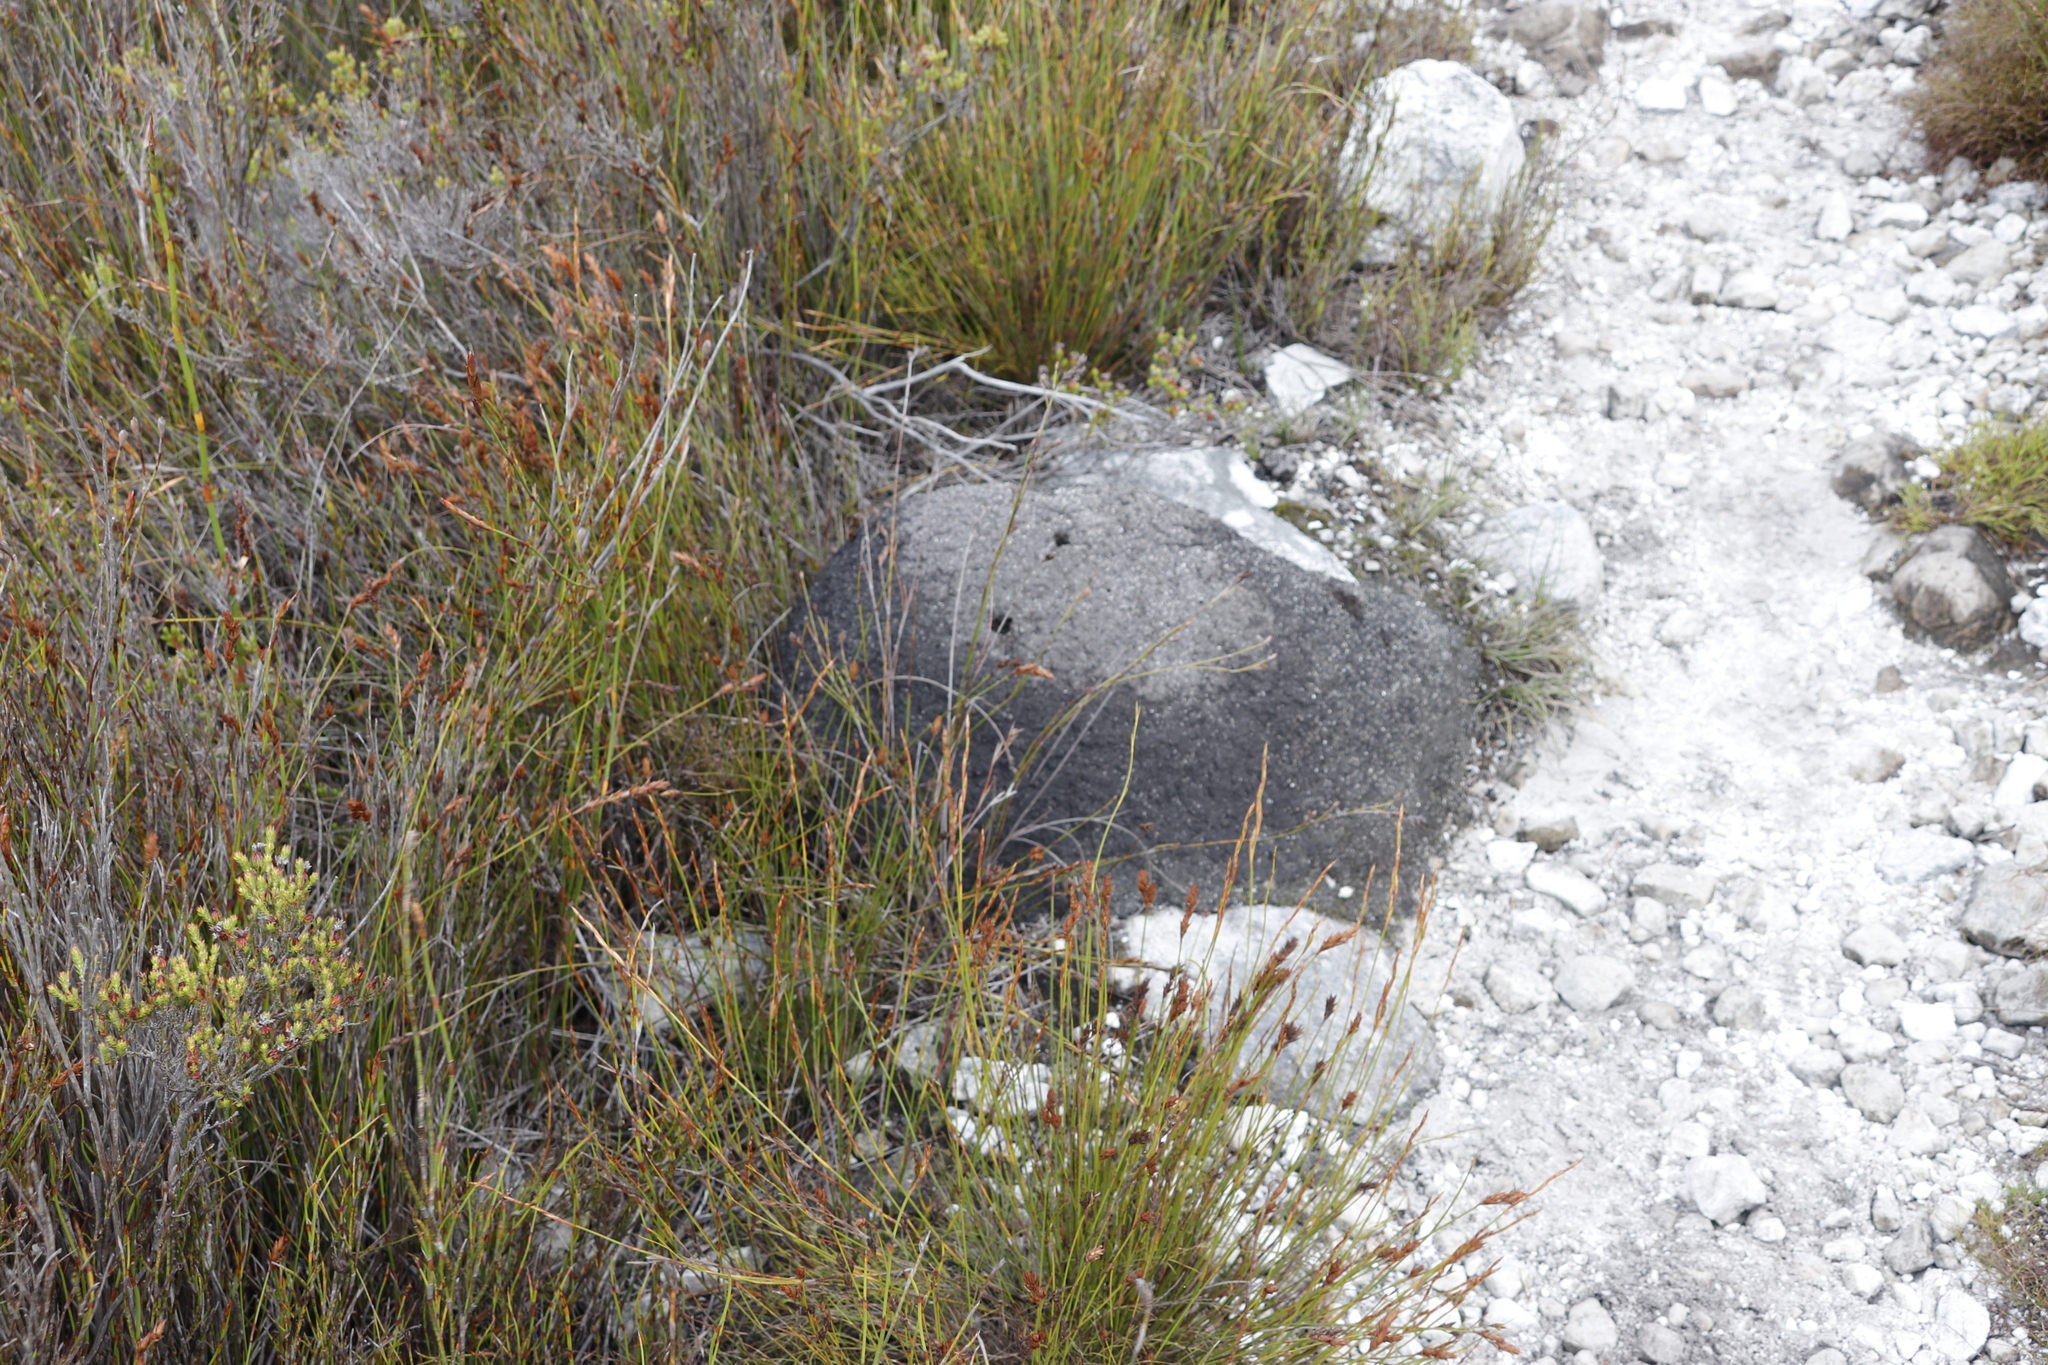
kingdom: Animalia
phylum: Arthropoda
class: Insecta
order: Blattodea
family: Termitidae
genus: Amitermes
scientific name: Amitermes hastatus
